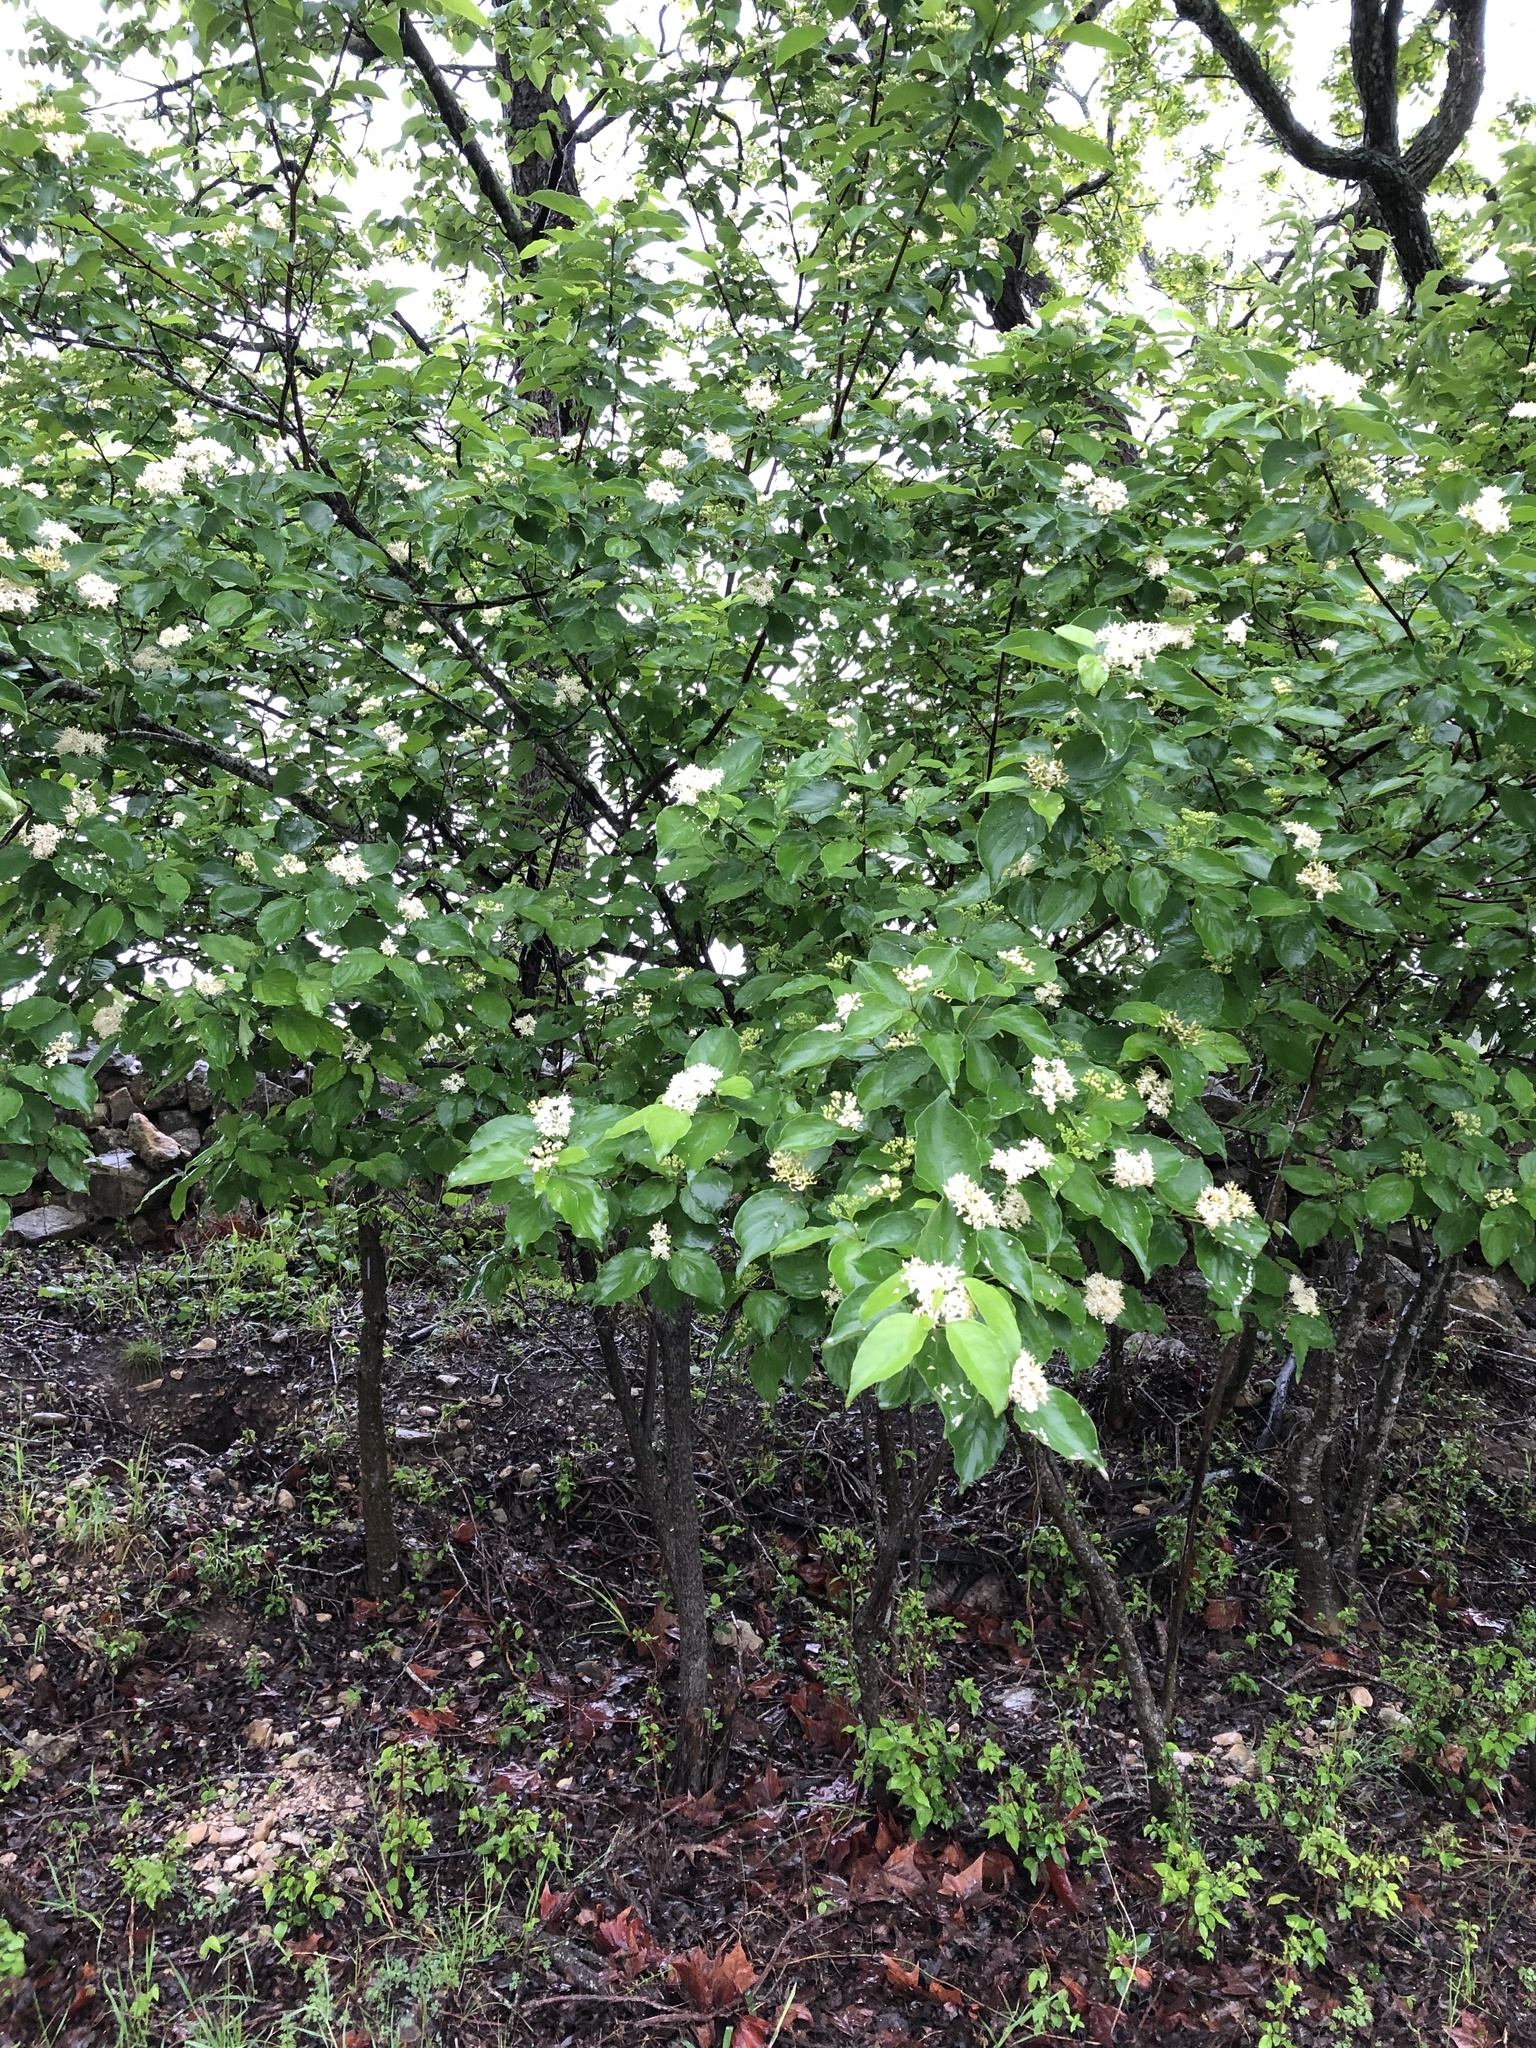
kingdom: Plantae
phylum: Tracheophyta
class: Magnoliopsida
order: Cornales
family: Cornaceae
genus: Cornus
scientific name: Cornus drummondii
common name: Rough-leaf dogwood
